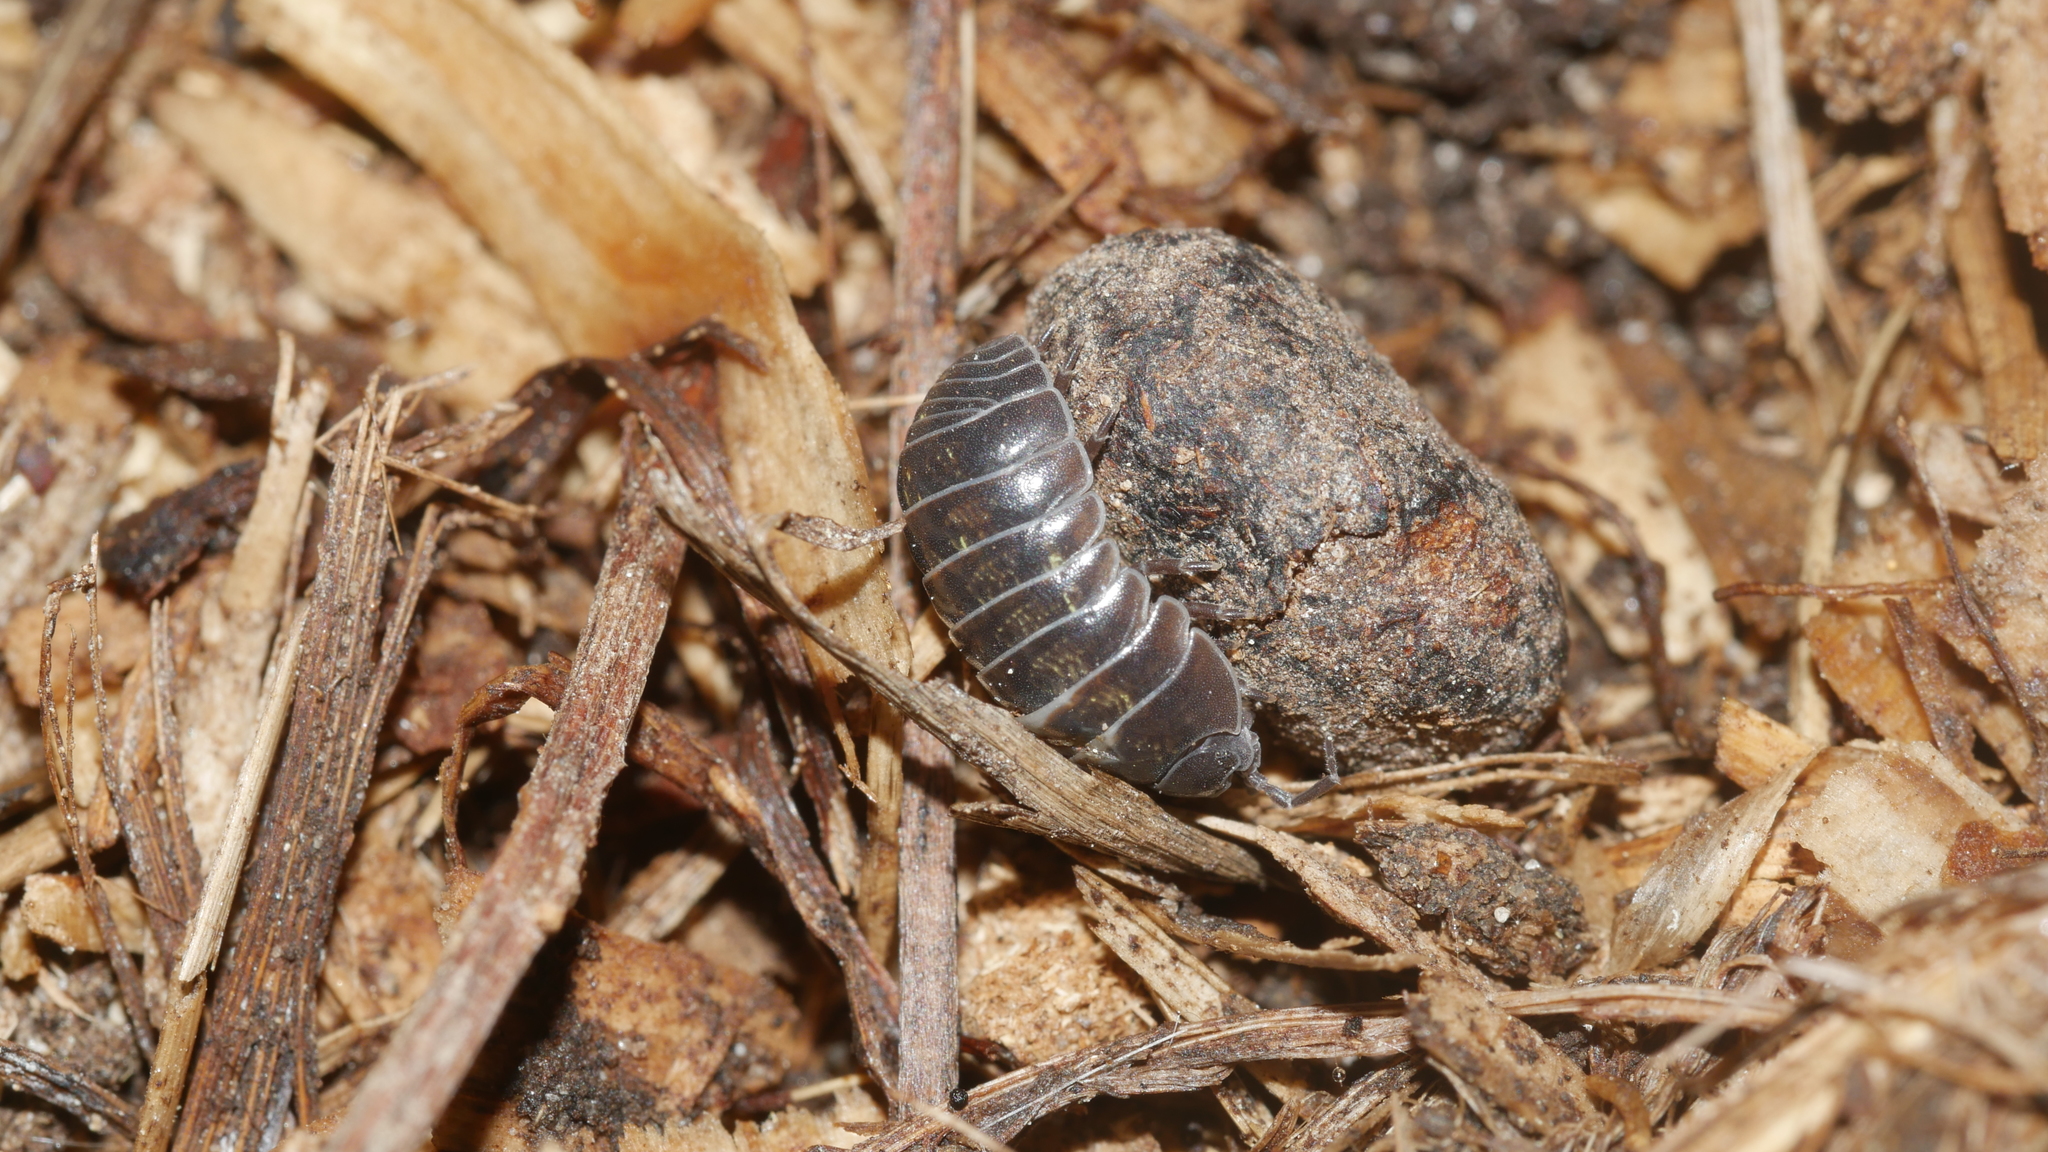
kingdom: Animalia
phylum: Arthropoda
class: Malacostraca
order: Isopoda
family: Armadillidiidae
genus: Armadillidium
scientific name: Armadillidium vulgare
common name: Common pill woodlouse
